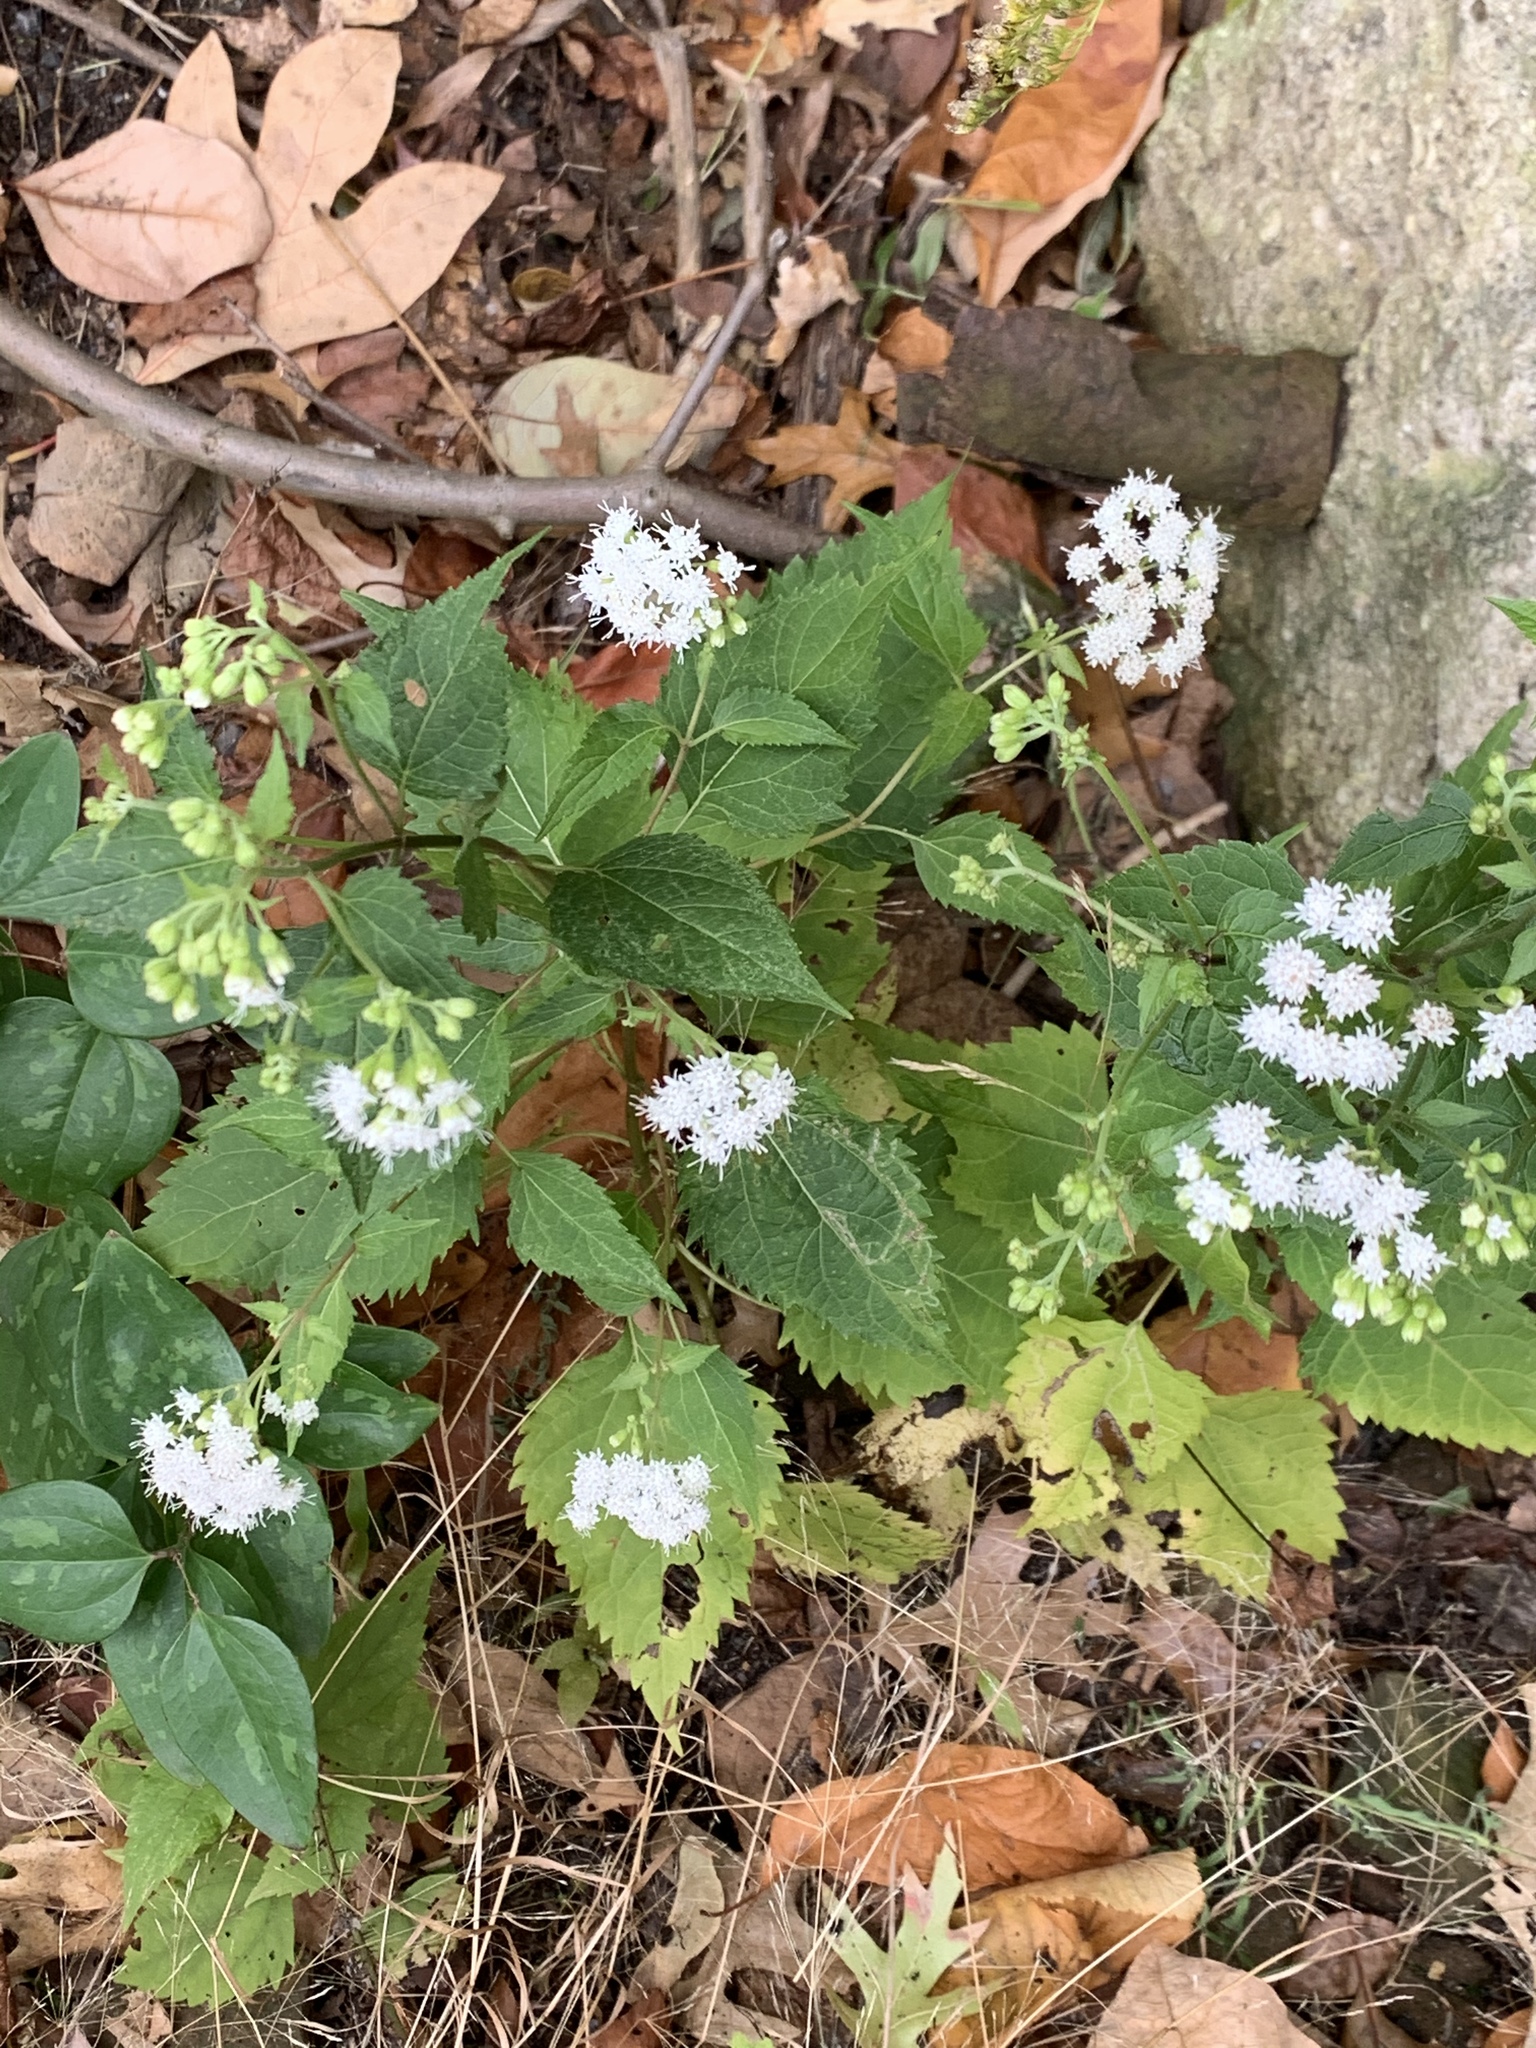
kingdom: Plantae
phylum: Tracheophyta
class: Magnoliopsida
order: Asterales
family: Asteraceae
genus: Ageratina
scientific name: Ageratina altissima
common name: White snakeroot
